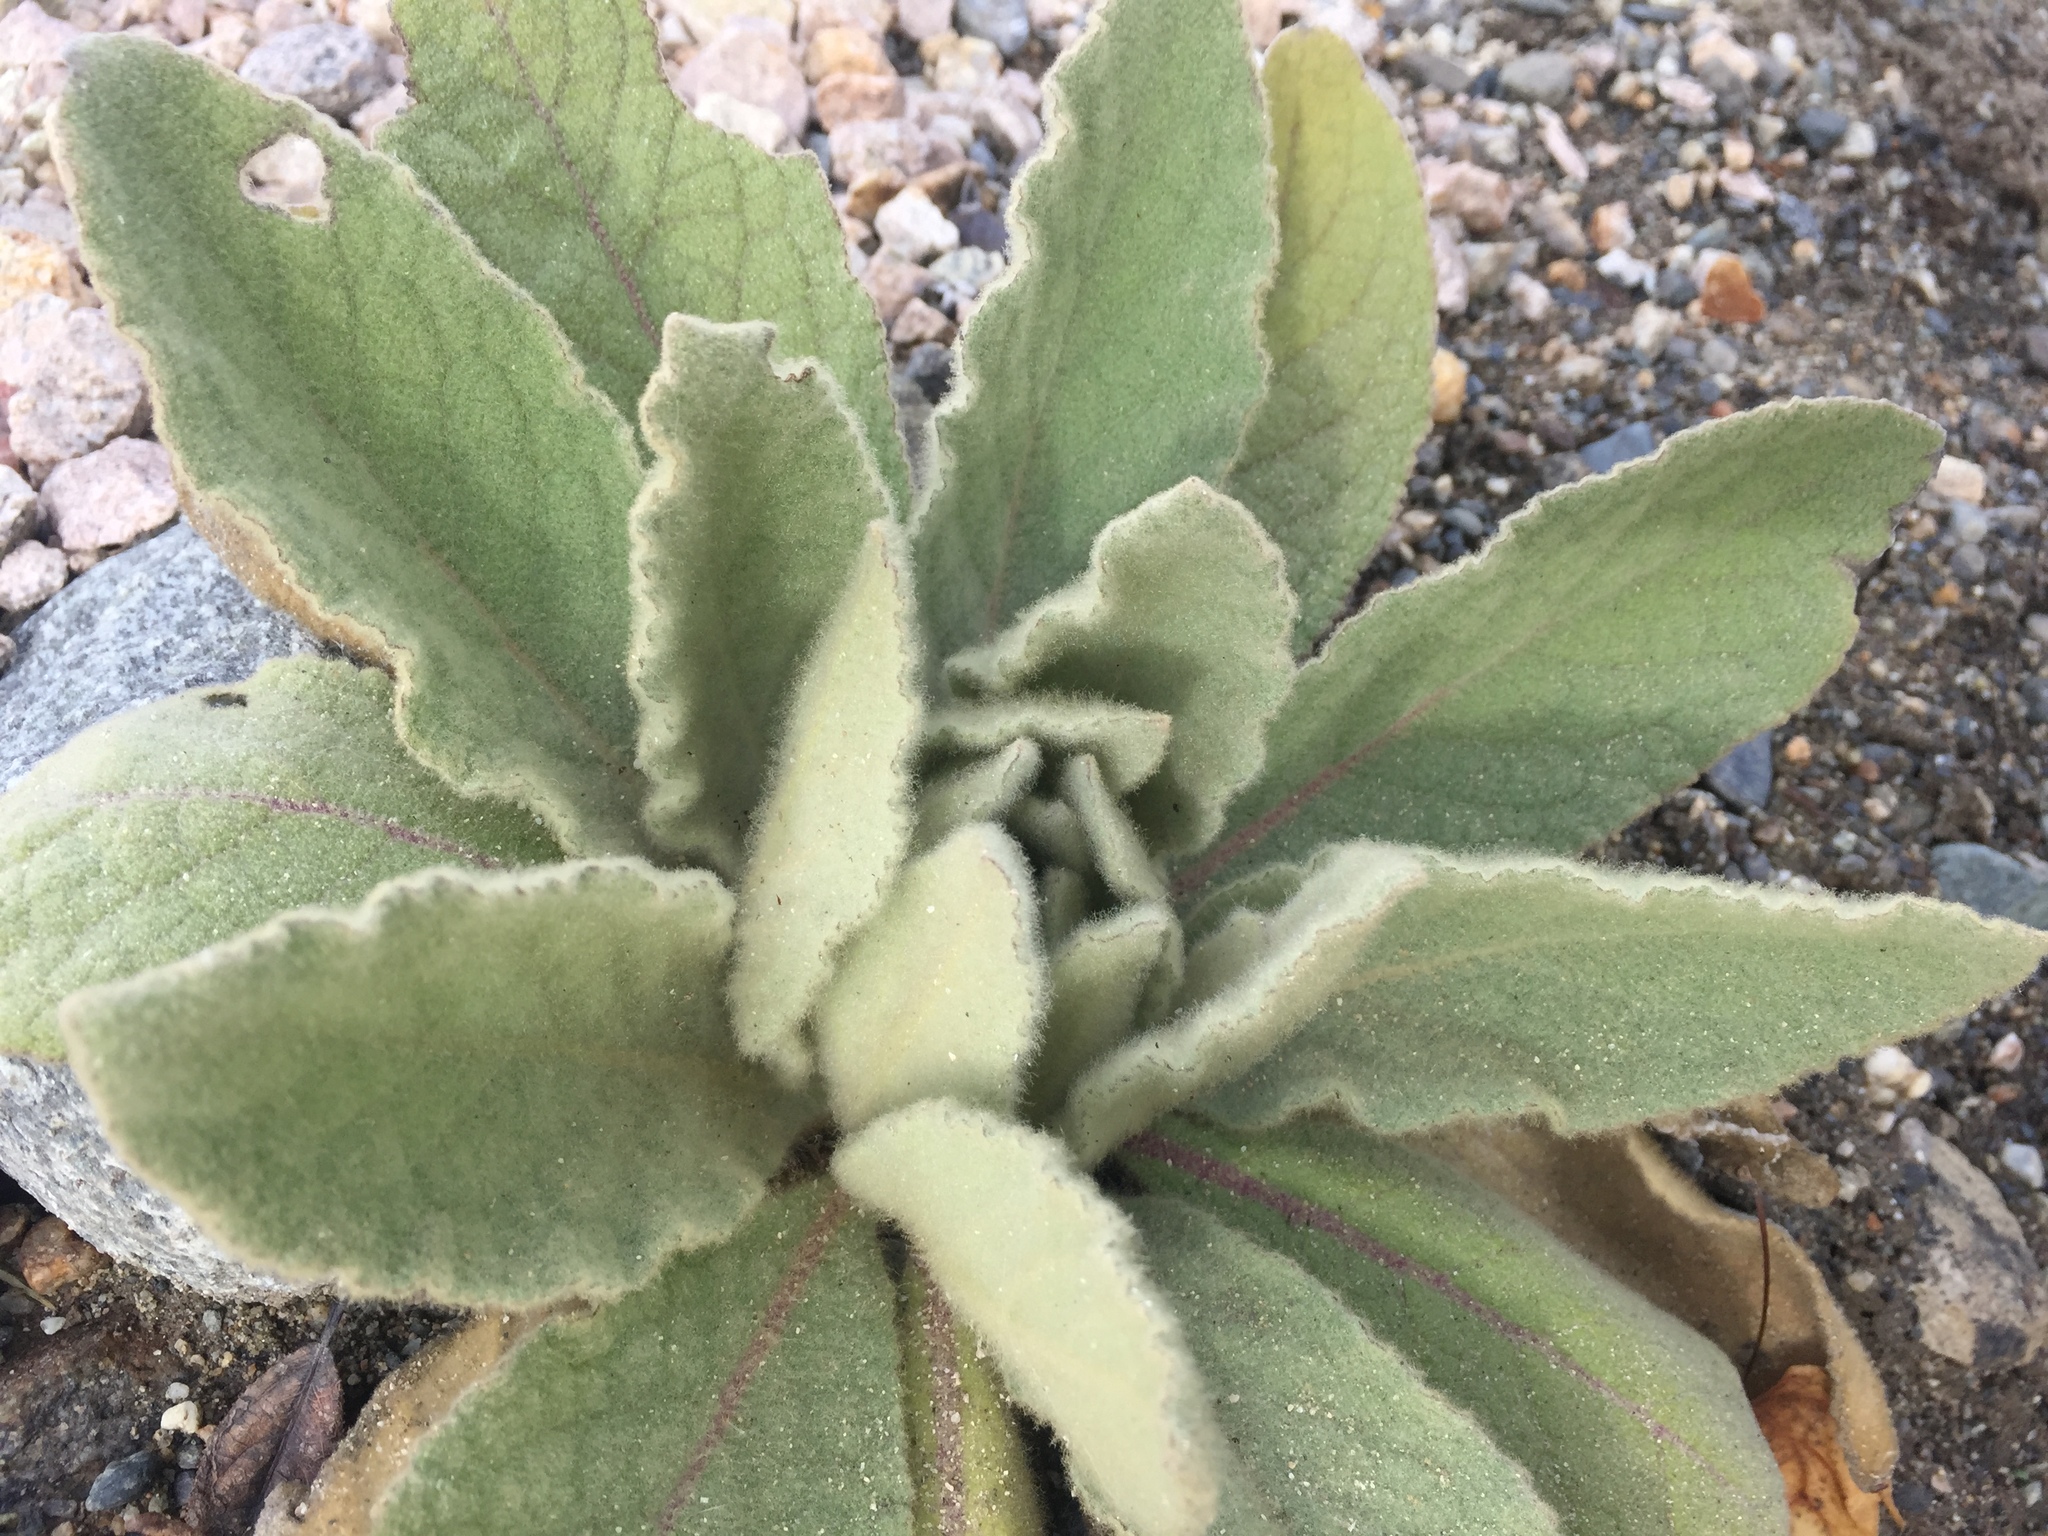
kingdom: Plantae
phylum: Tracheophyta
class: Magnoliopsida
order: Lamiales
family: Scrophulariaceae
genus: Verbascum
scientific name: Verbascum thapsus
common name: Common mullein
